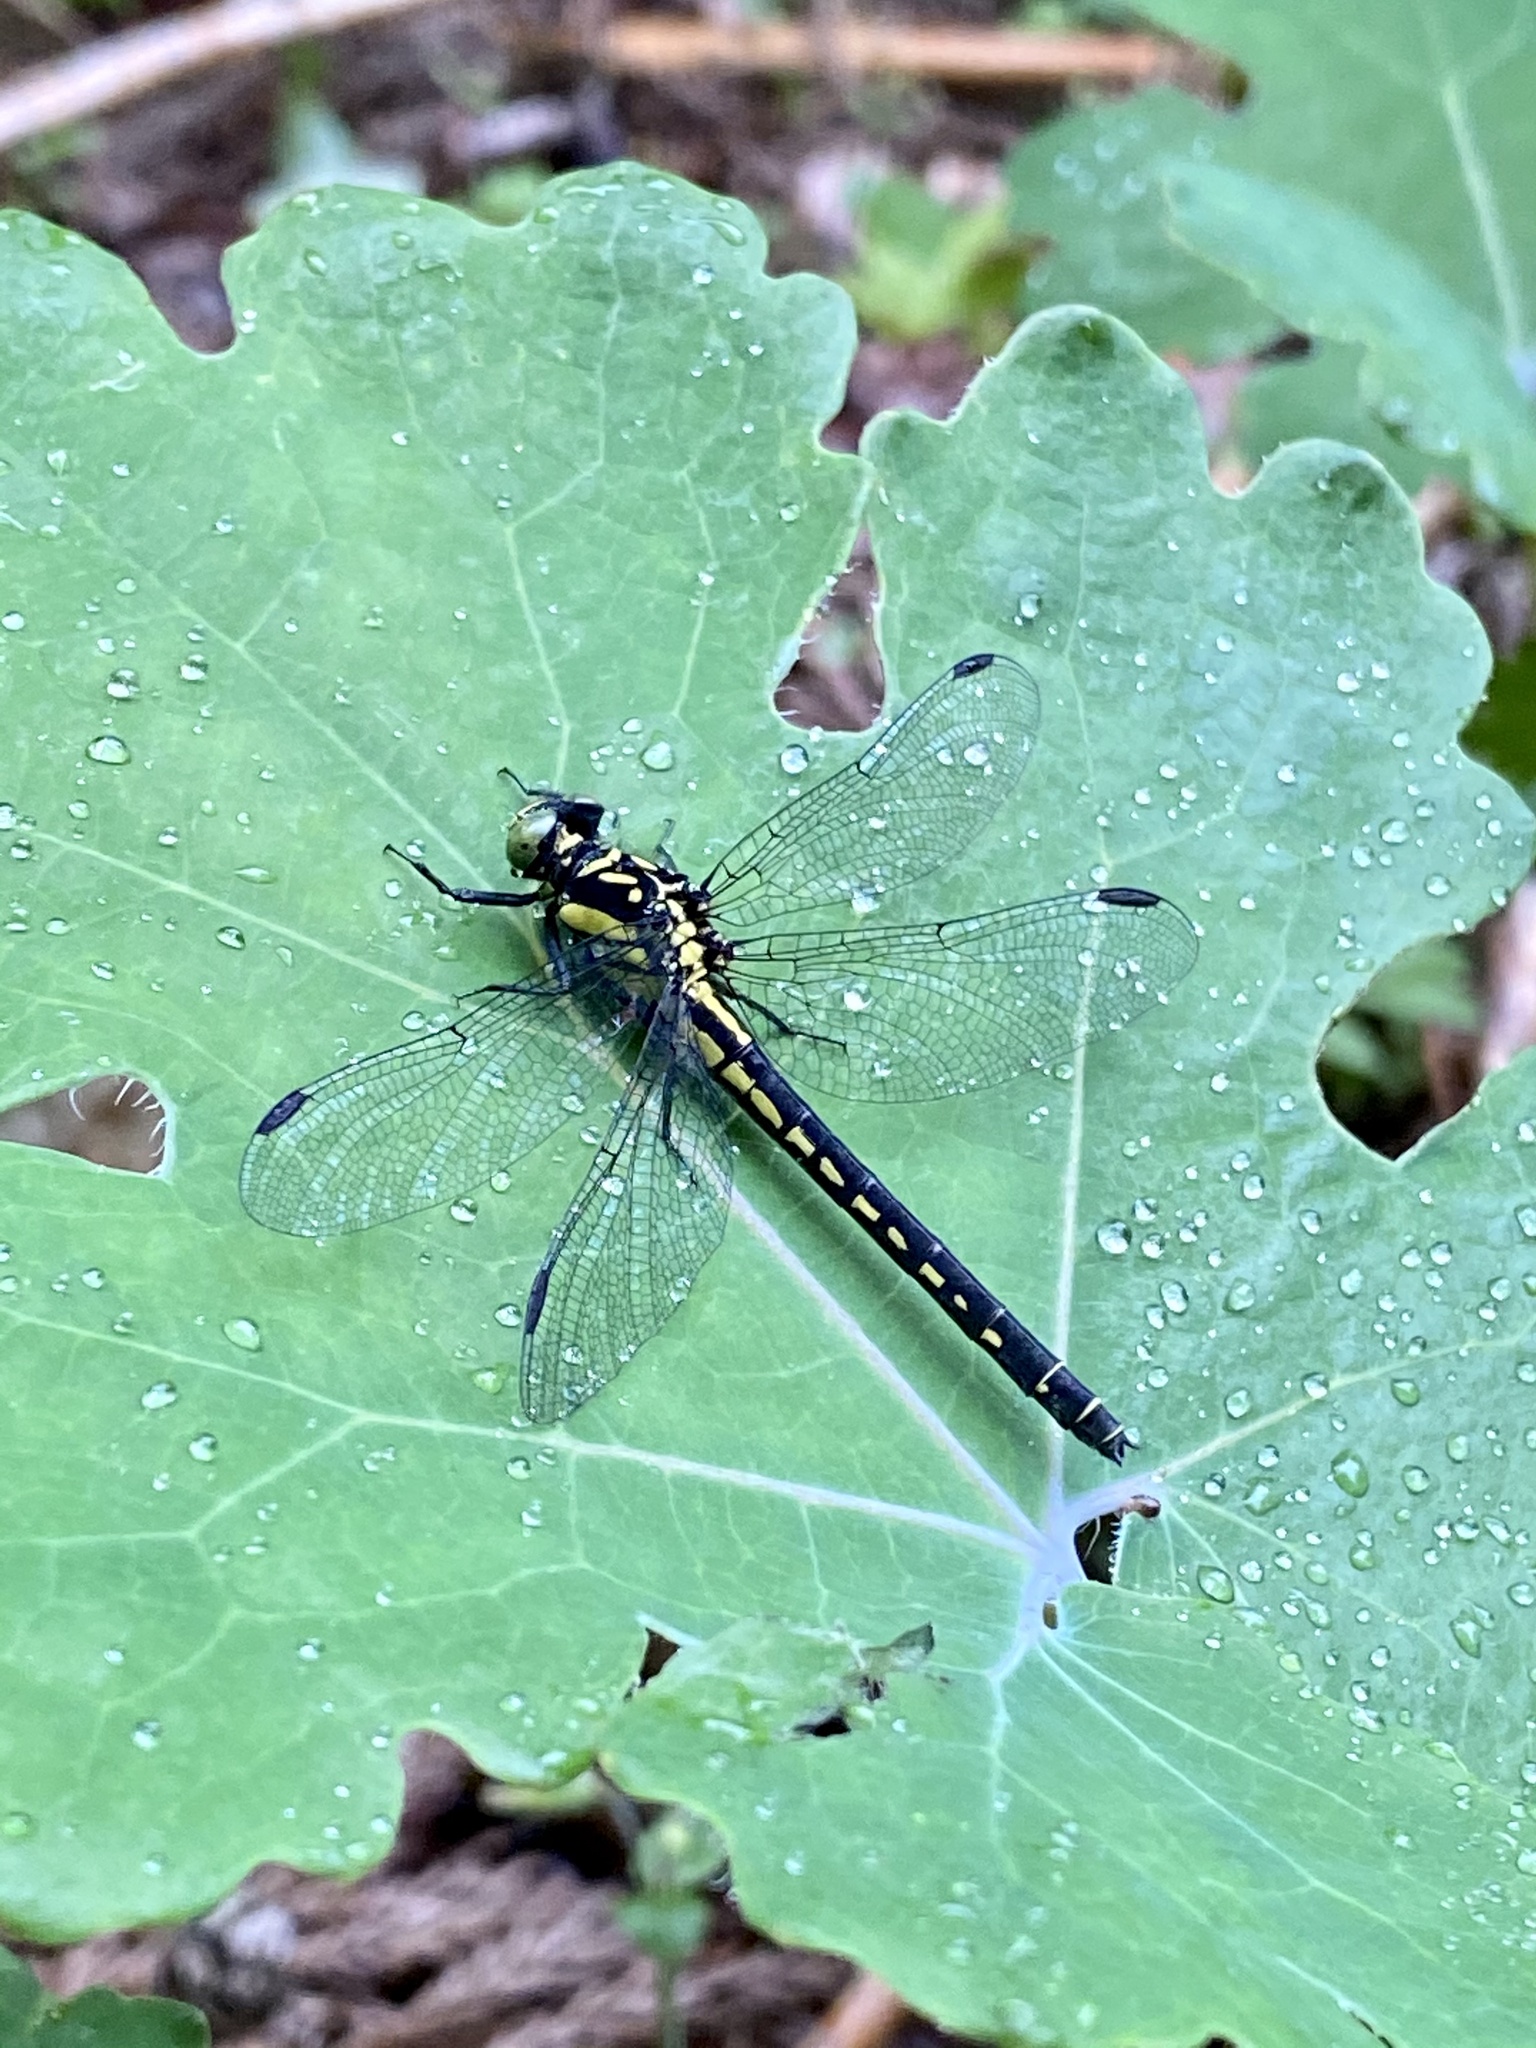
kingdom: Animalia
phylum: Arthropoda
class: Insecta
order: Odonata
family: Gomphidae
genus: Davidius
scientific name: Davidius nanus
